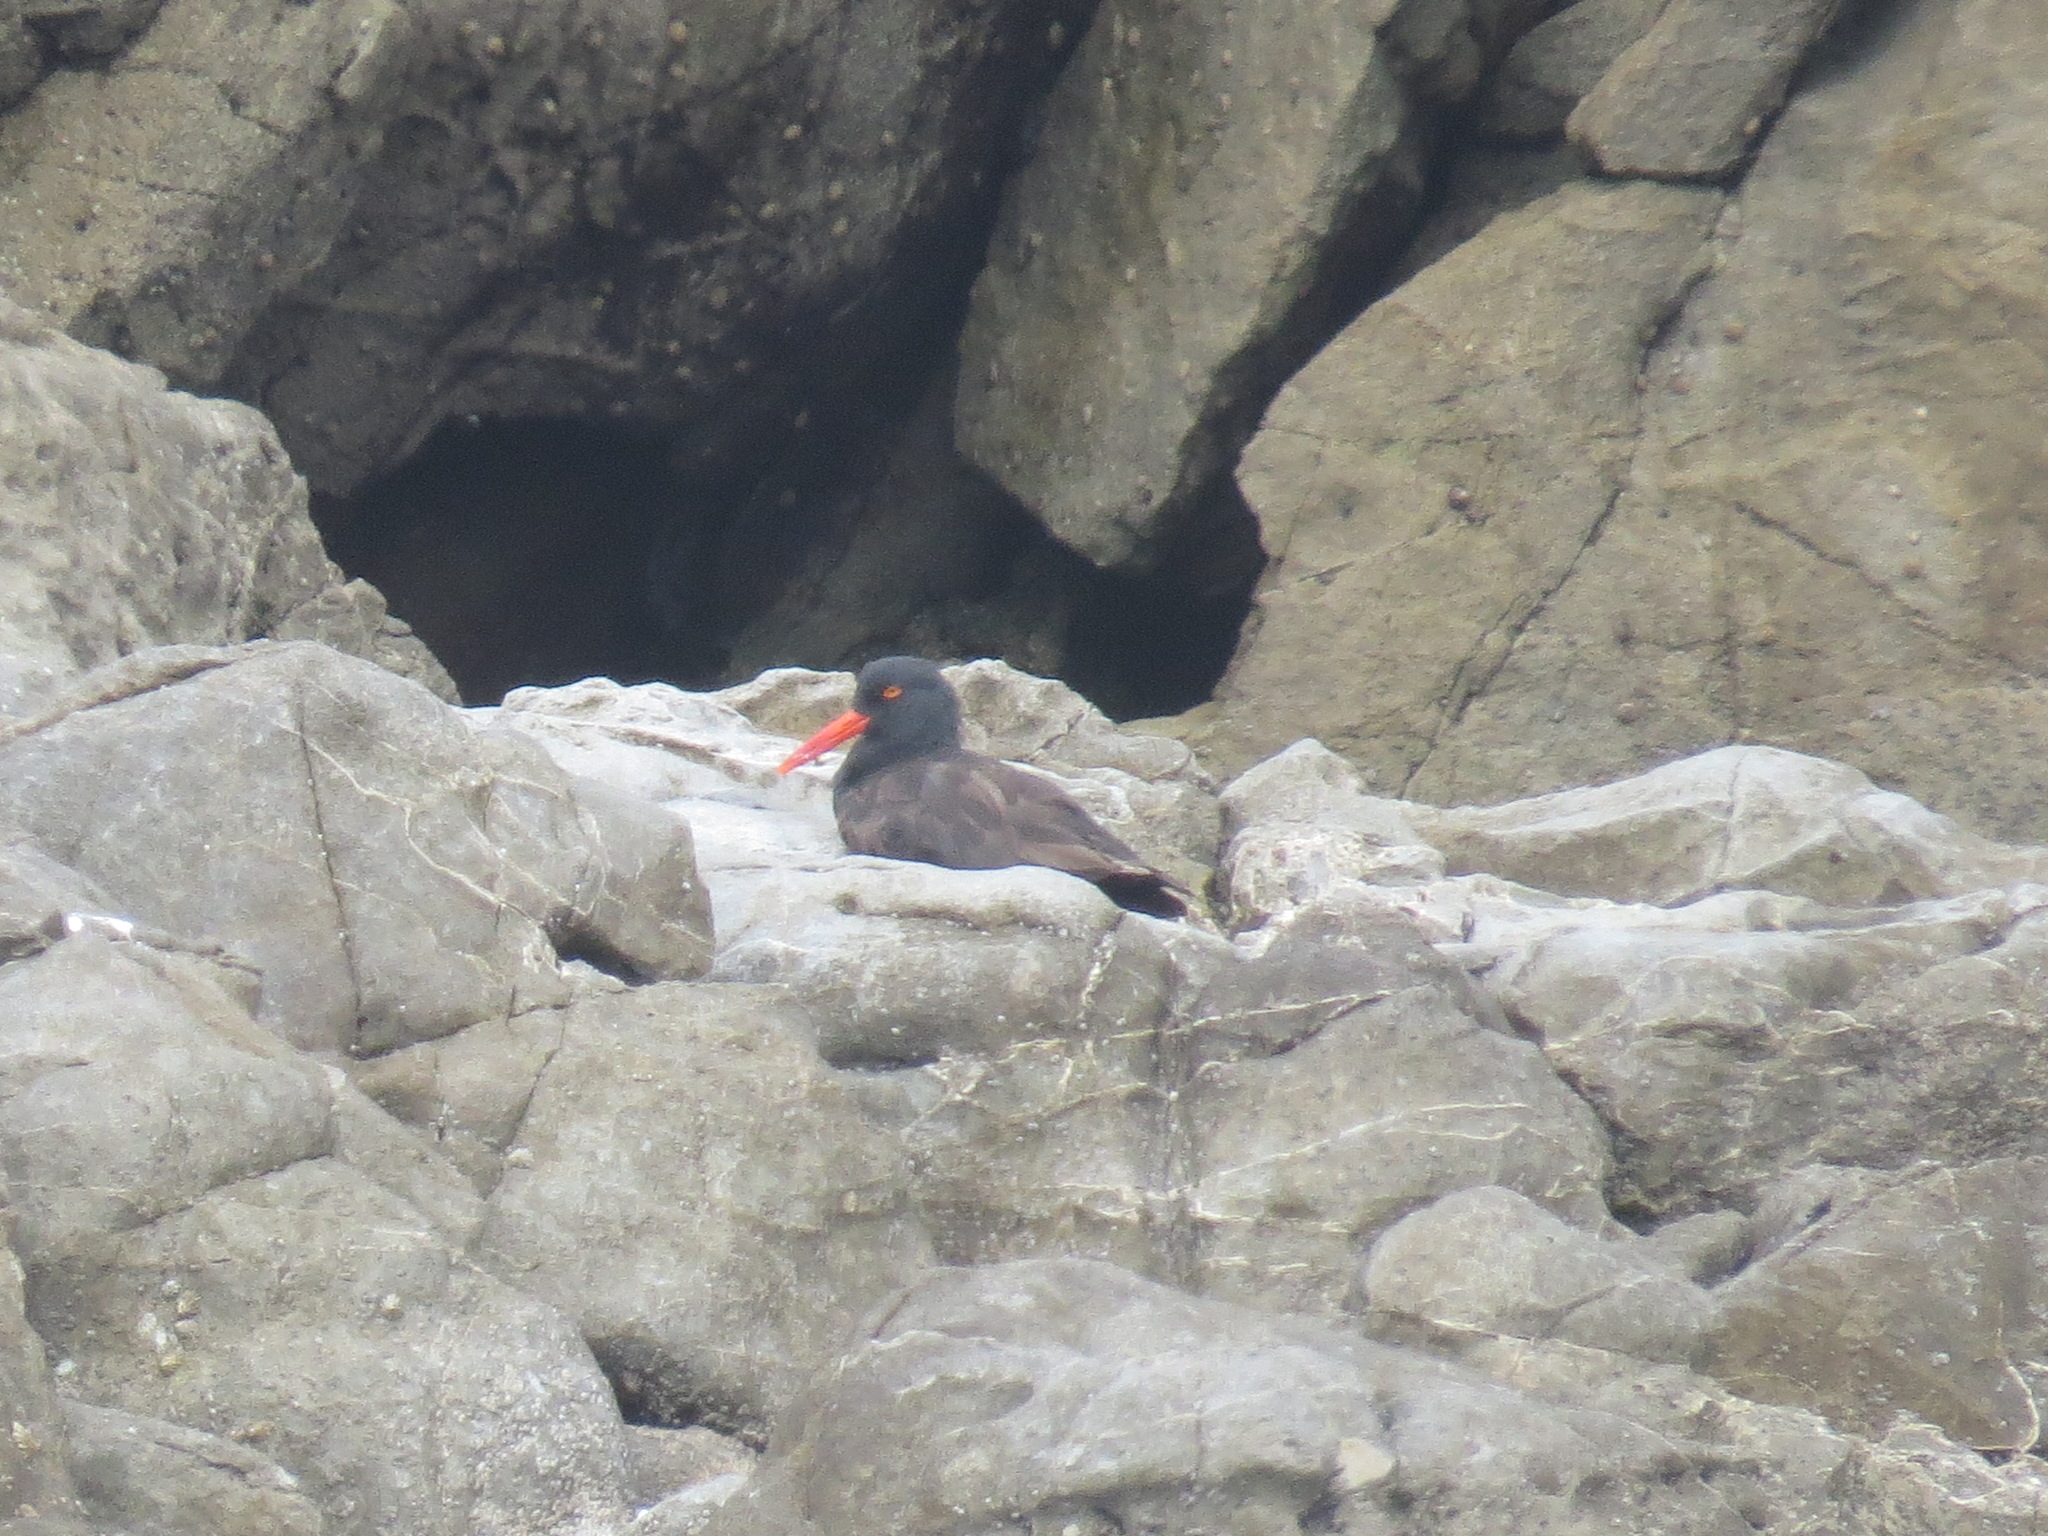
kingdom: Animalia
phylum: Chordata
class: Aves
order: Charadriiformes
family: Haematopodidae
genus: Haematopus
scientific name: Haematopus bachmani
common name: Black oystercatcher
